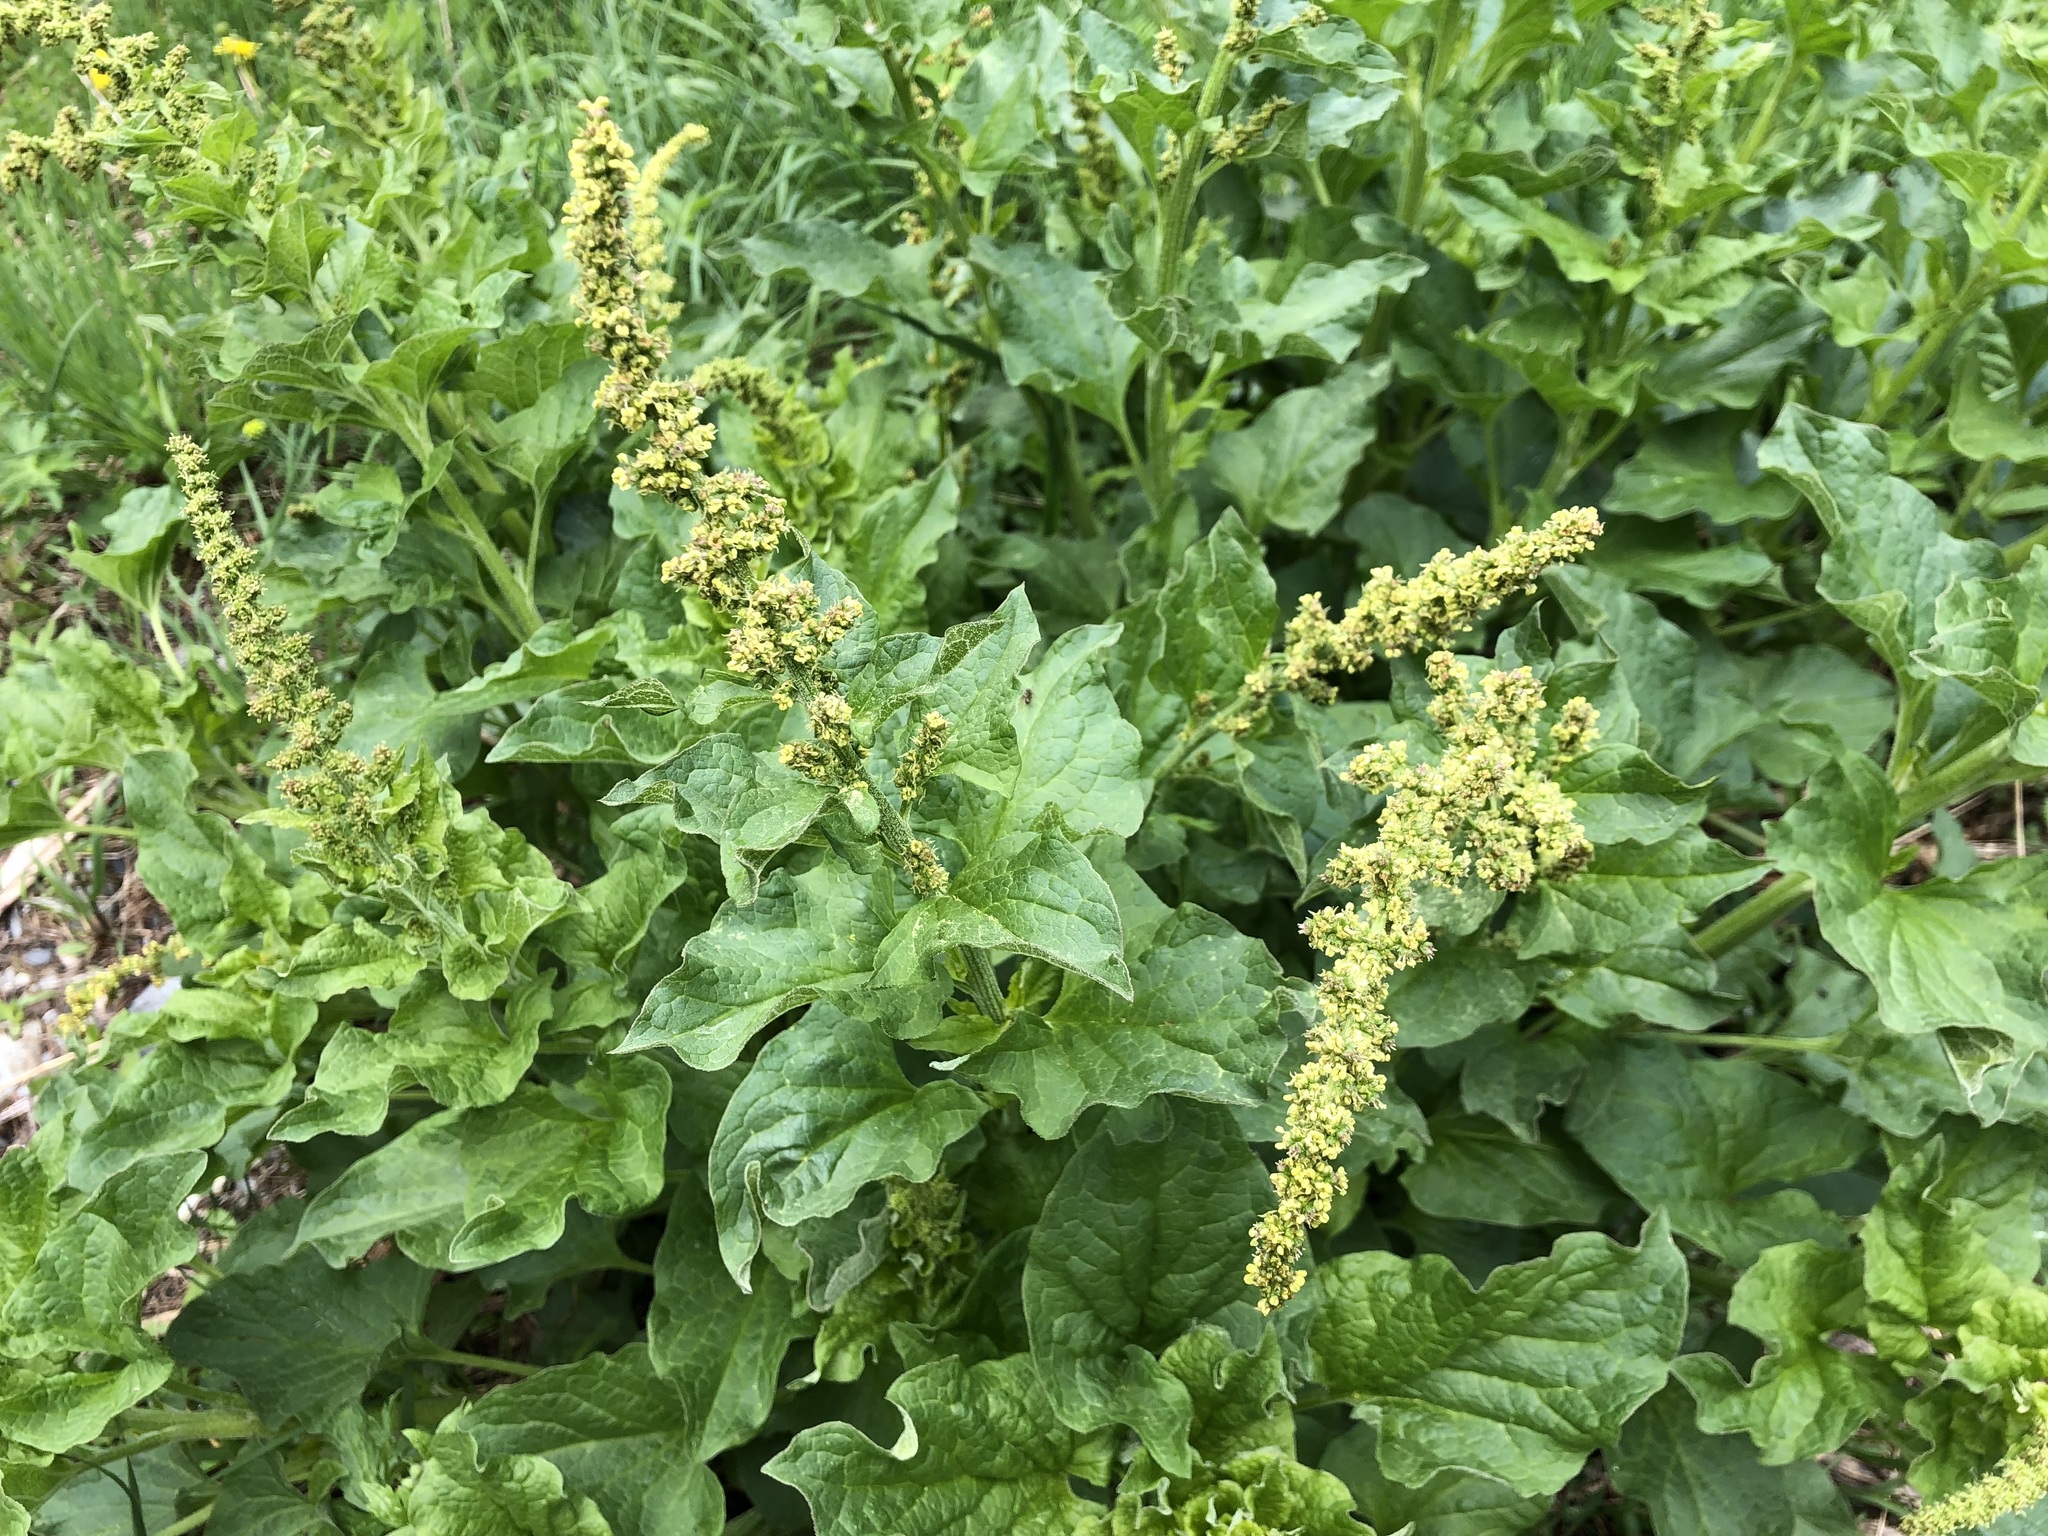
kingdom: Plantae
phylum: Tracheophyta
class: Magnoliopsida
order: Caryophyllales
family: Amaranthaceae
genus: Blitum
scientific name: Blitum bonus-henricus
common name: Good king henry
